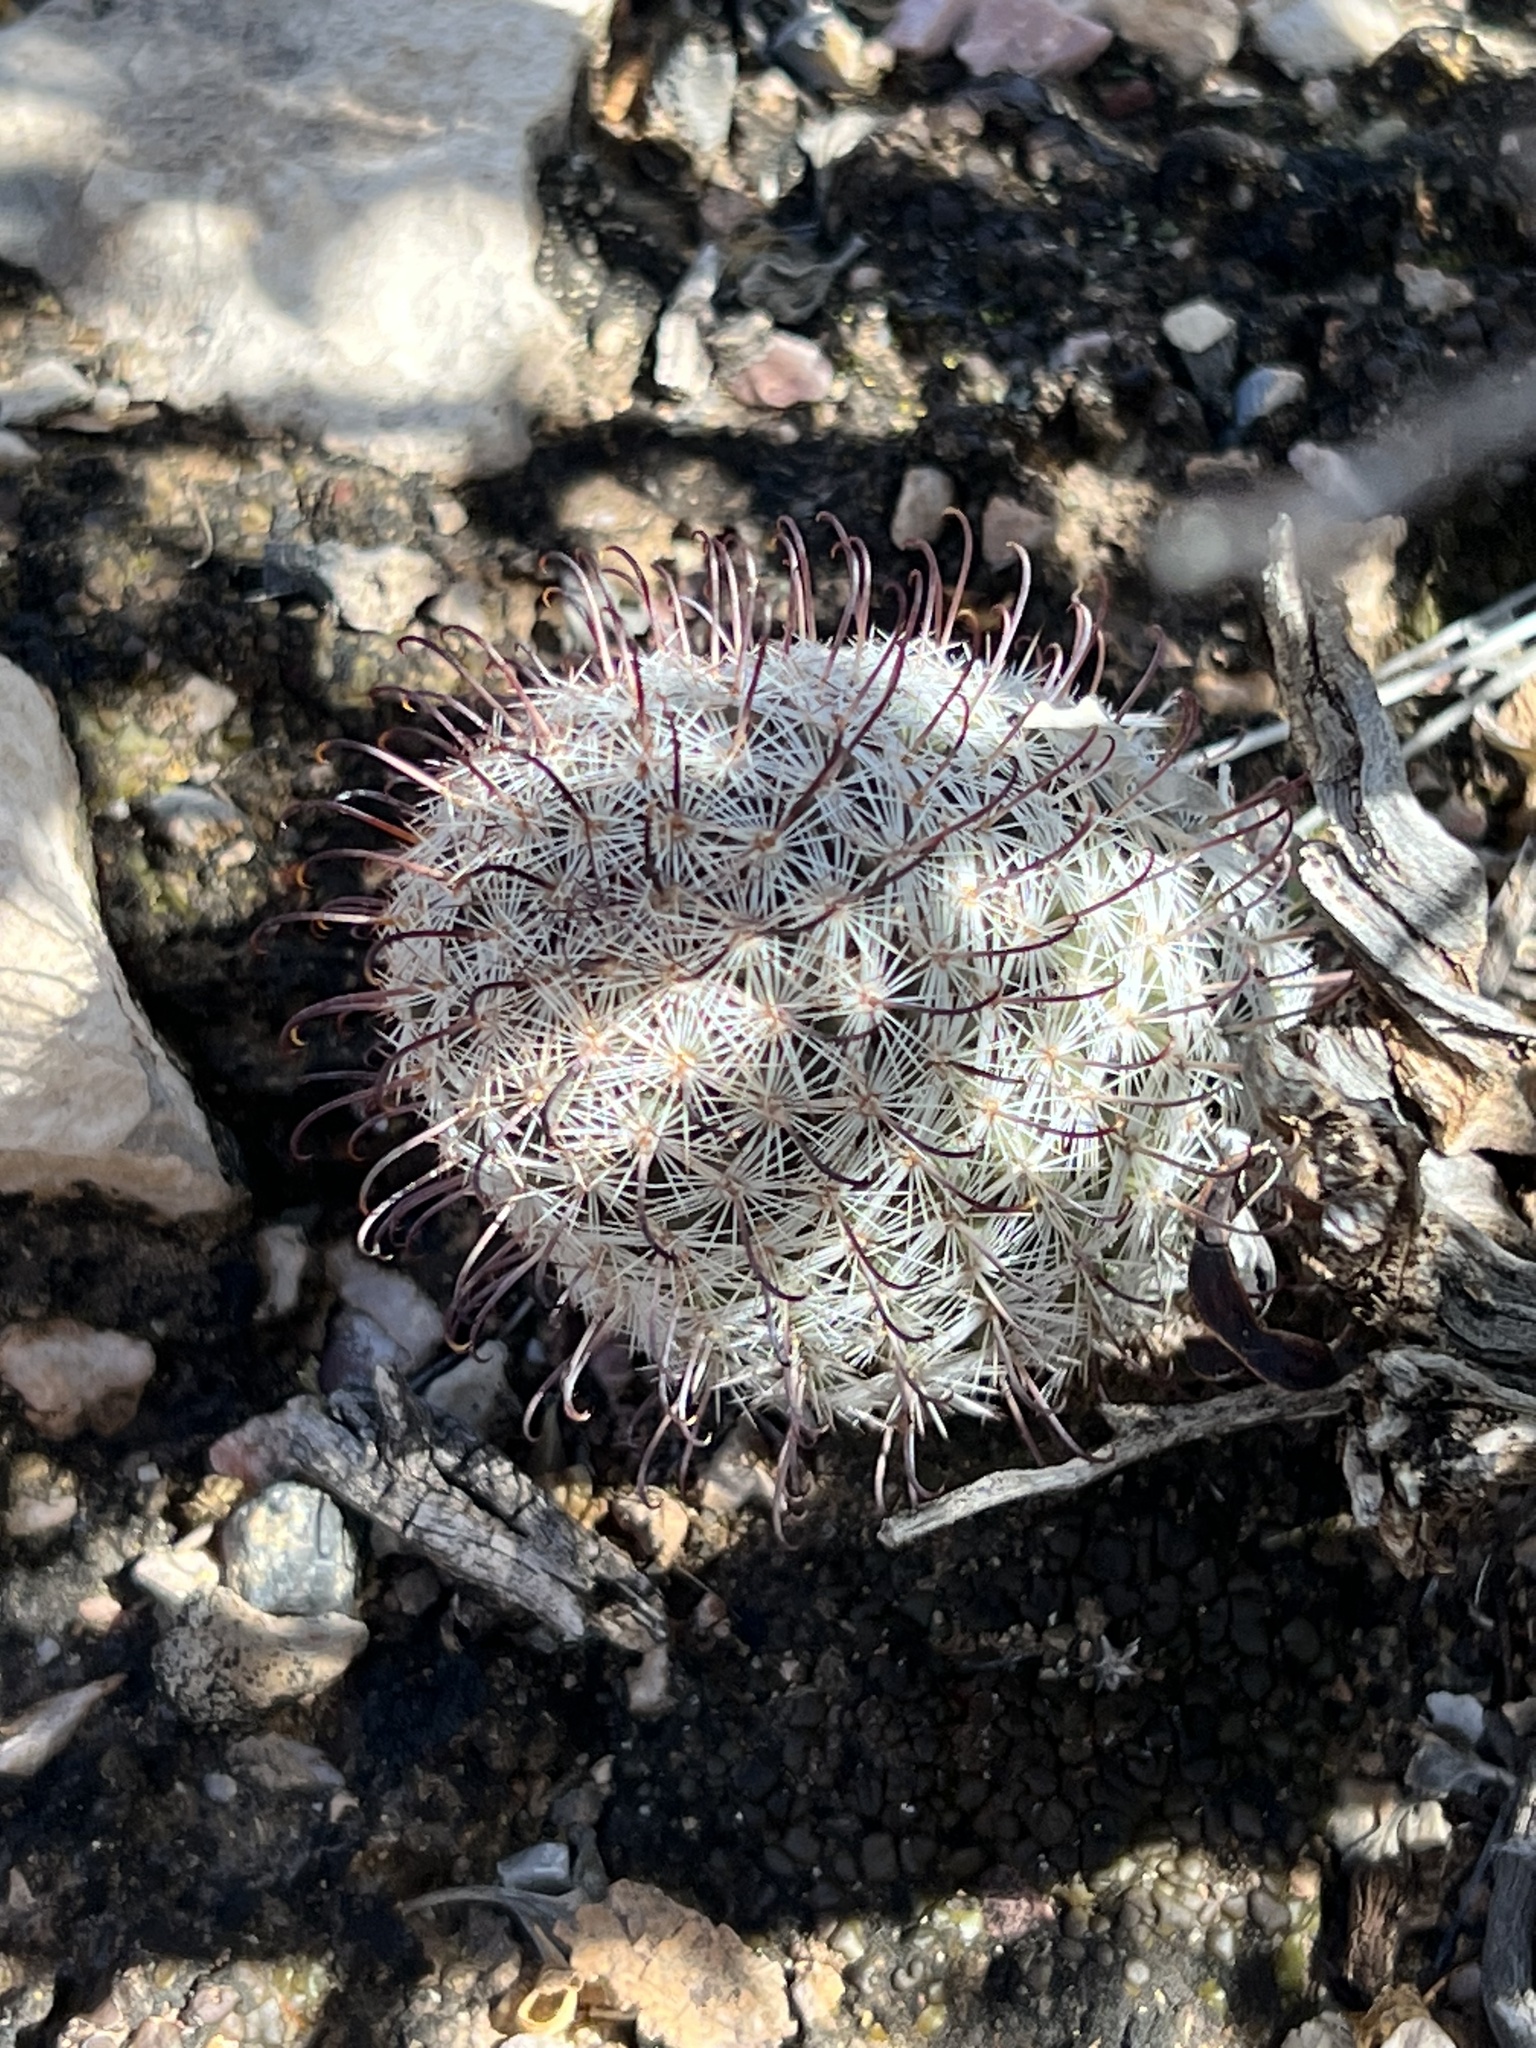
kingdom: Plantae
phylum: Tracheophyta
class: Magnoliopsida
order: Caryophyllales
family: Cactaceae
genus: Cochemiea
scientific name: Cochemiea grahamii
